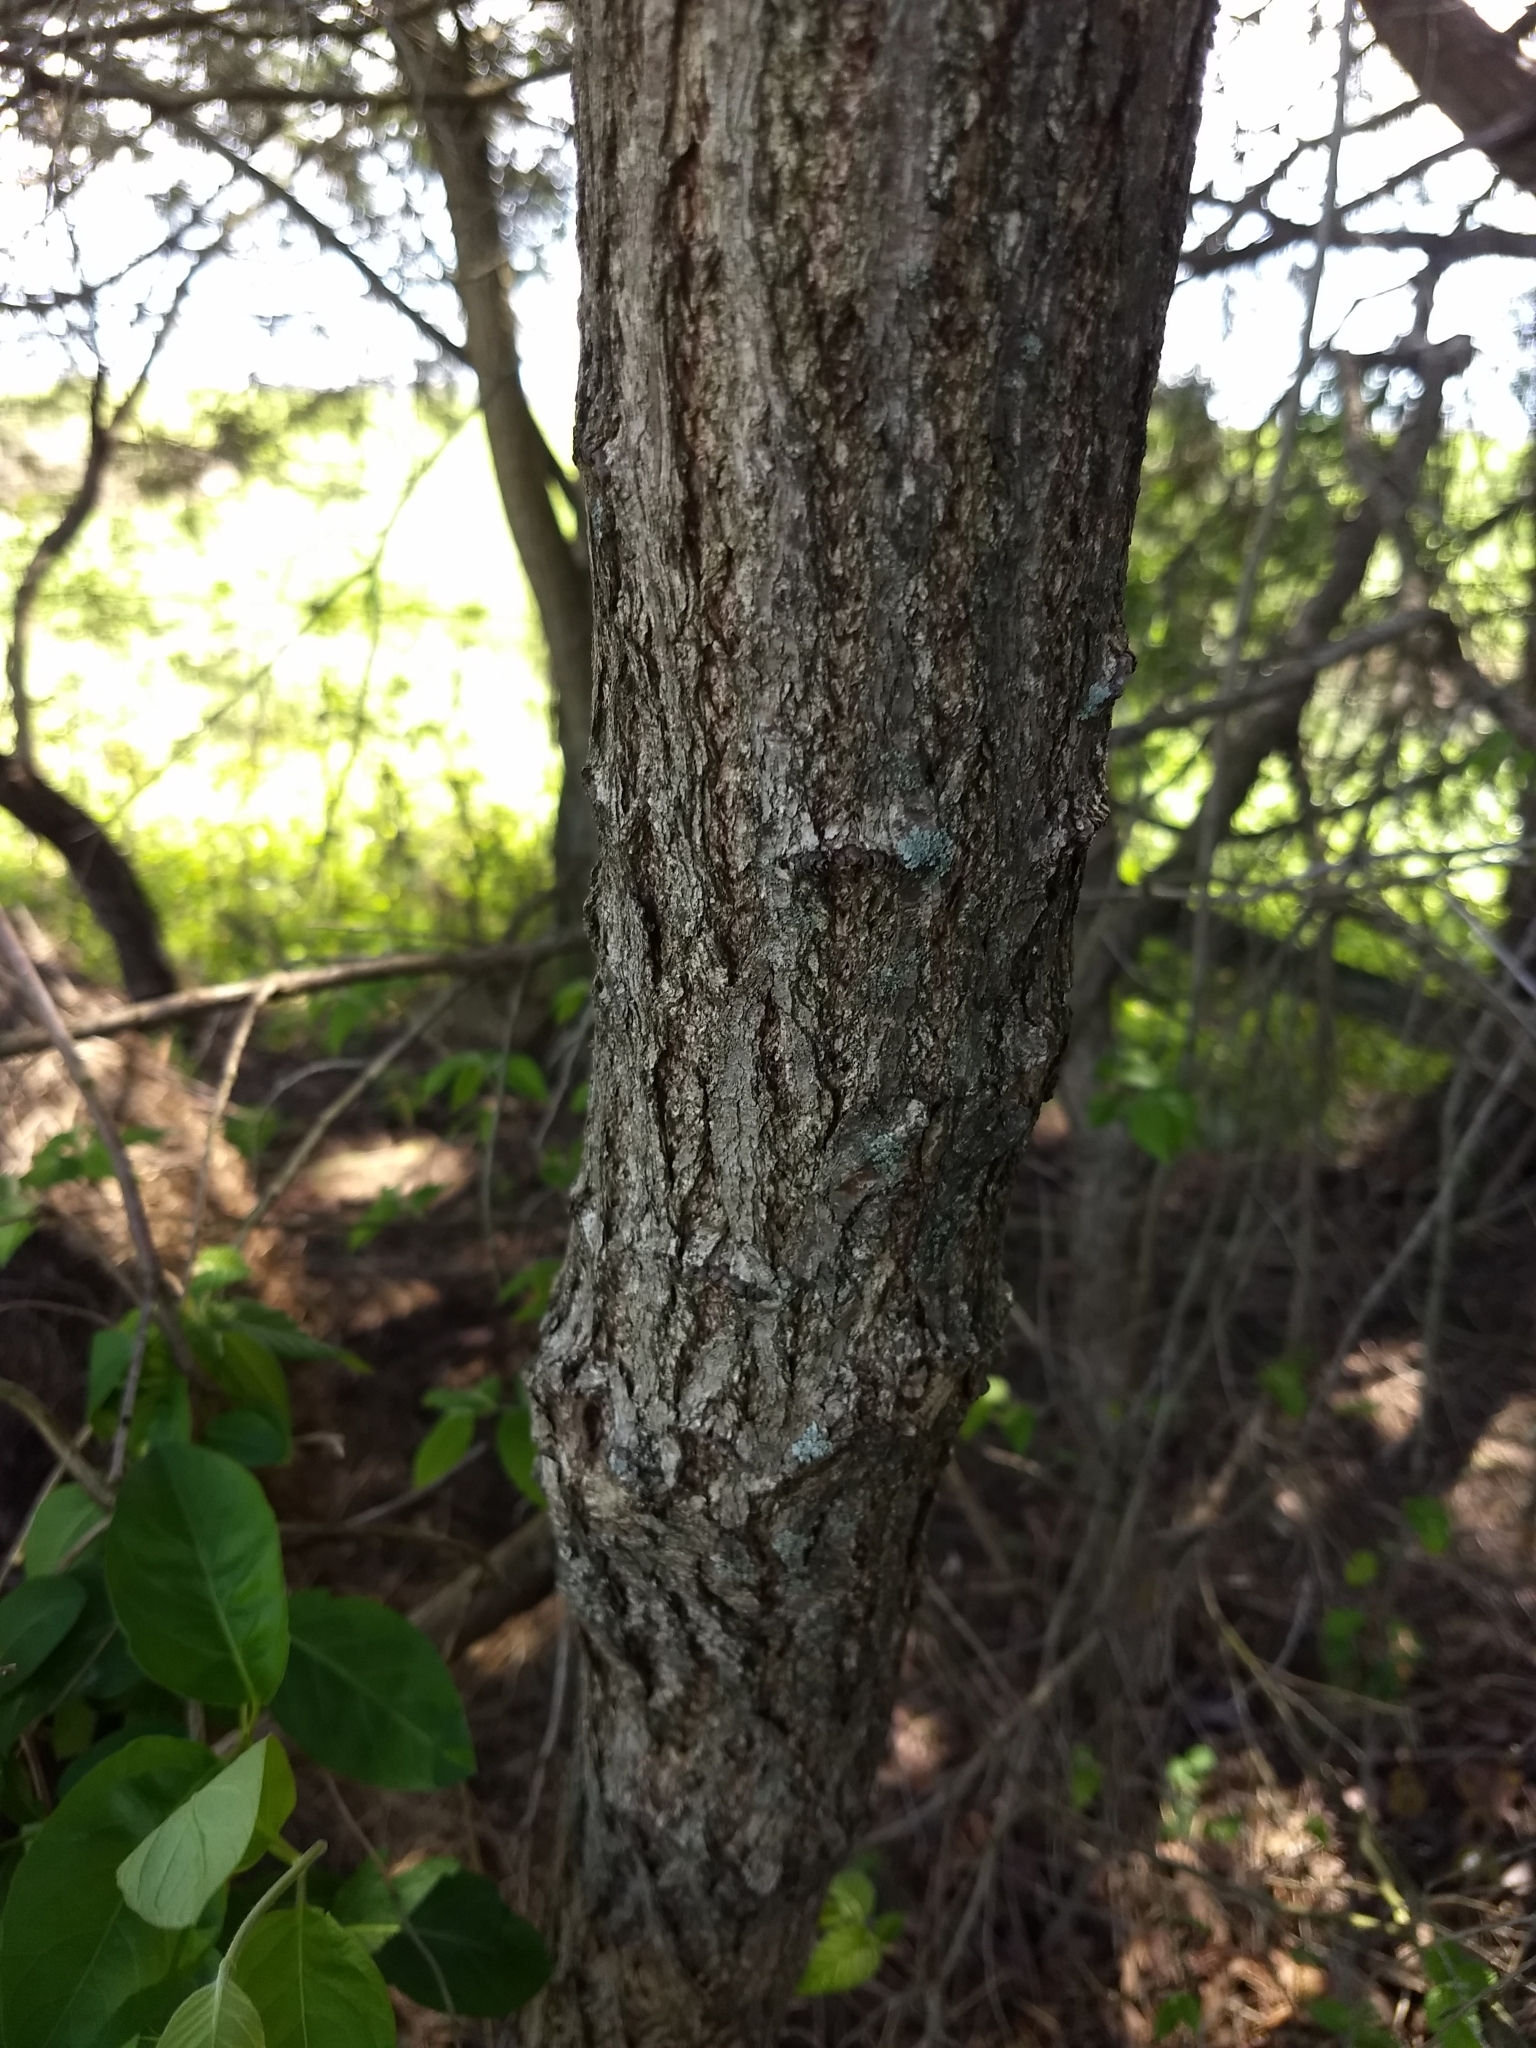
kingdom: Plantae
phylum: Tracheophyta
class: Magnoliopsida
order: Laurales
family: Lauraceae
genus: Sassafras
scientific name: Sassafras albidum
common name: Sassafras
